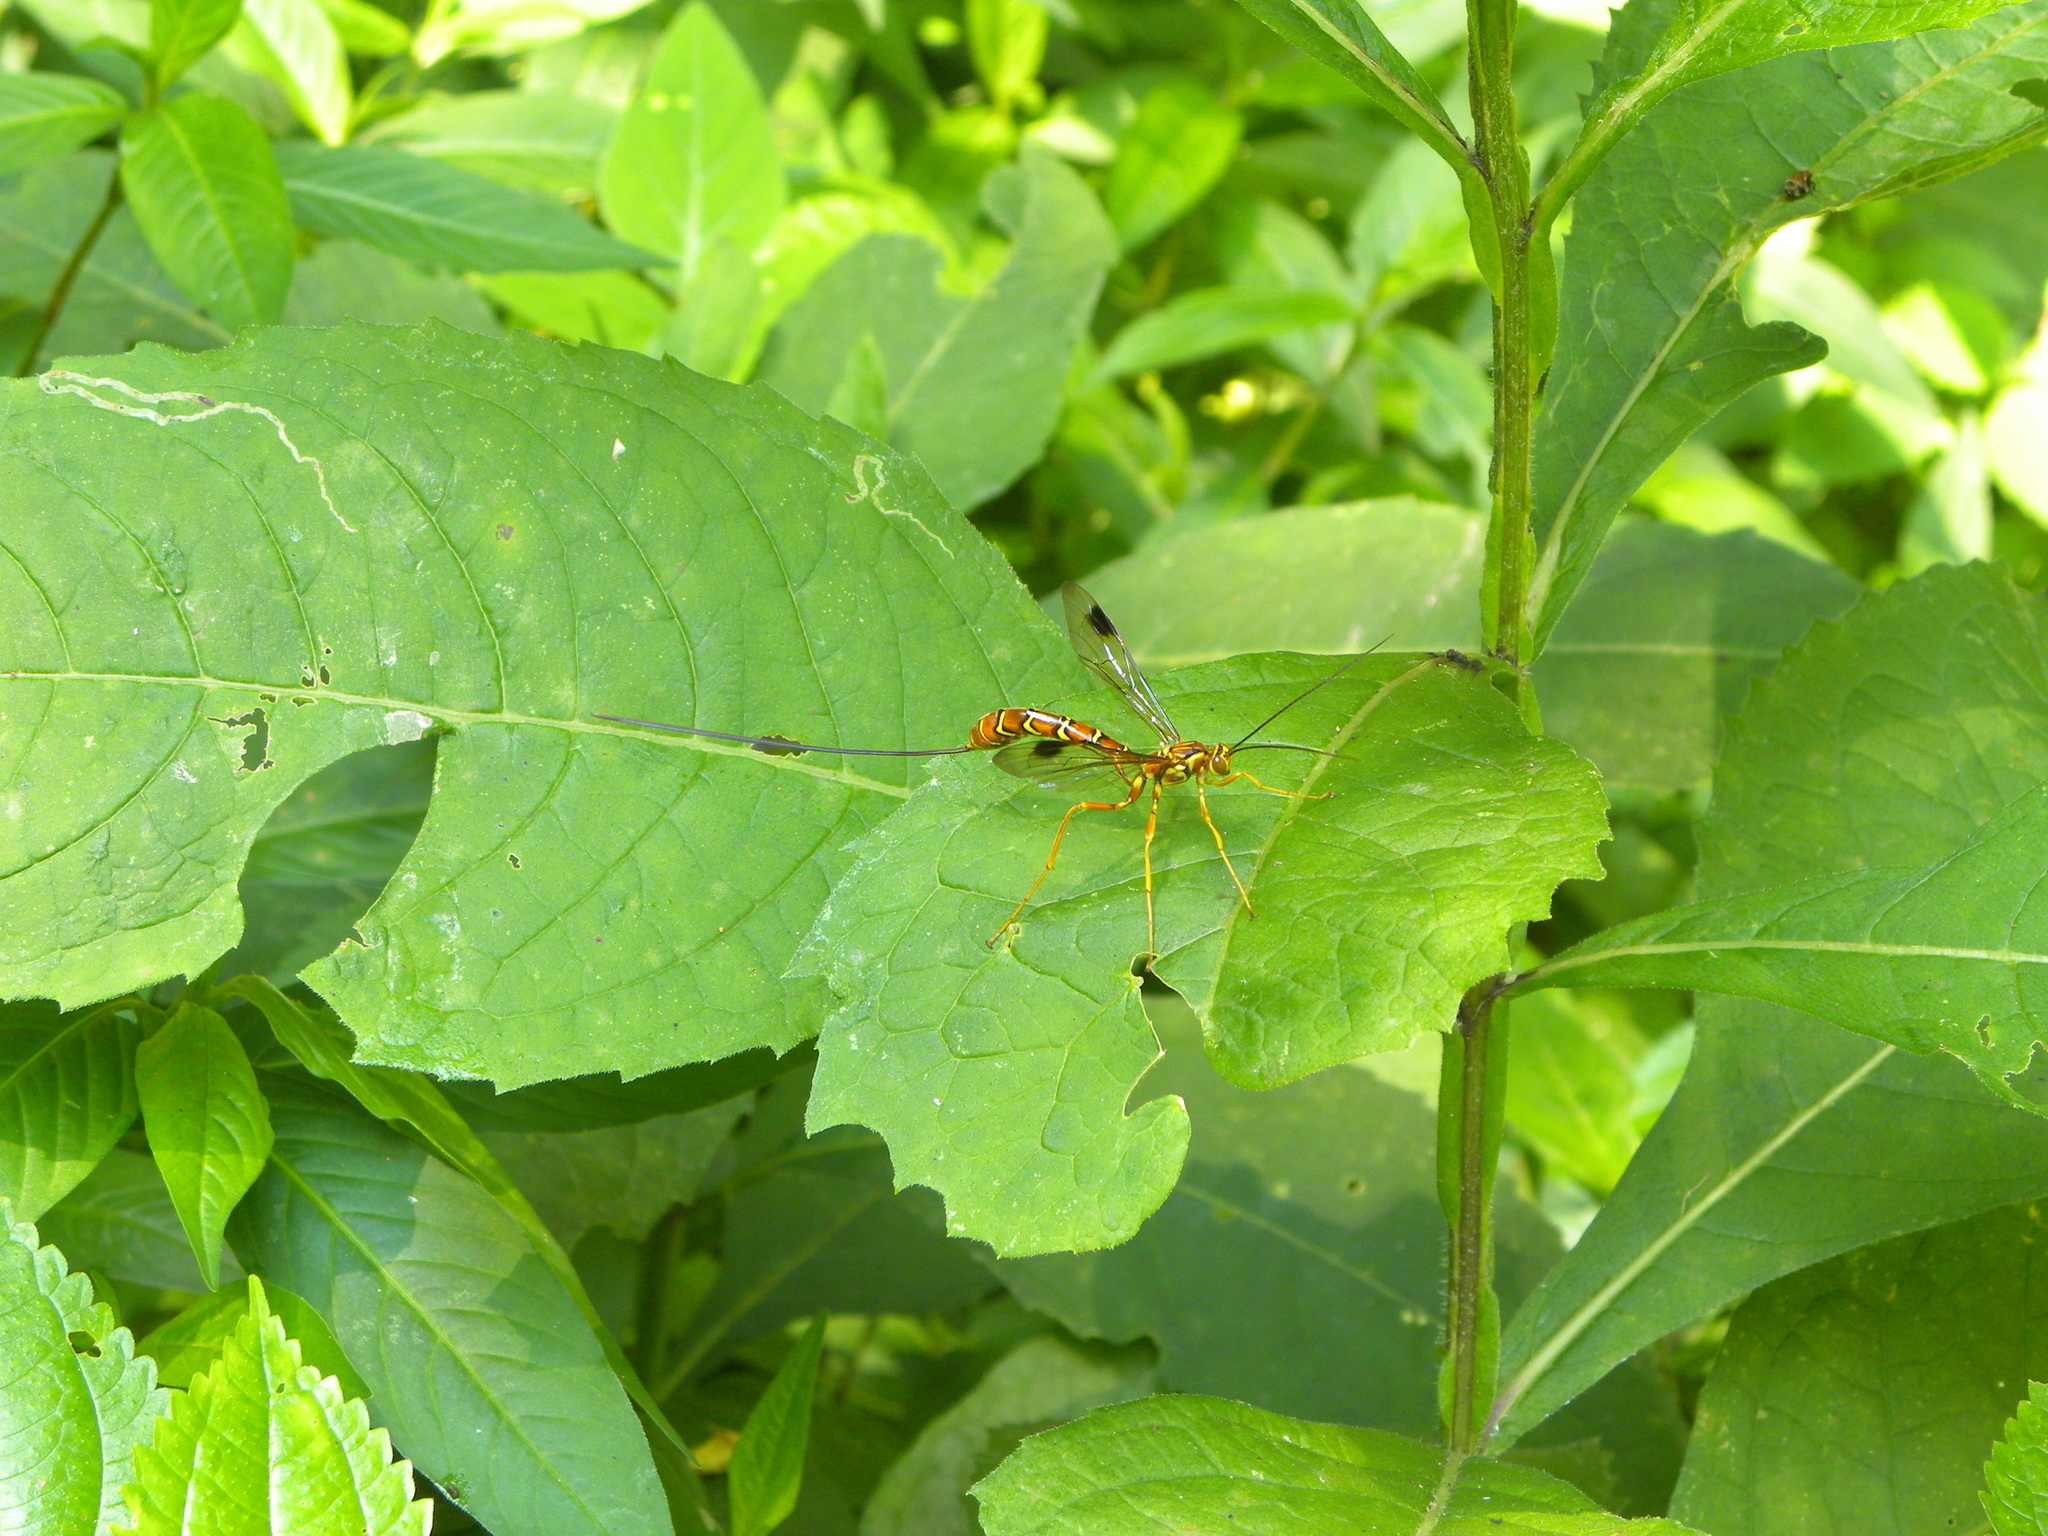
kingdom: Animalia
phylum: Arthropoda
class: Insecta
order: Hymenoptera
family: Ichneumonidae
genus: Megarhyssa
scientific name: Megarhyssa greenei
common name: Greene's giant ichneumonid wasp
